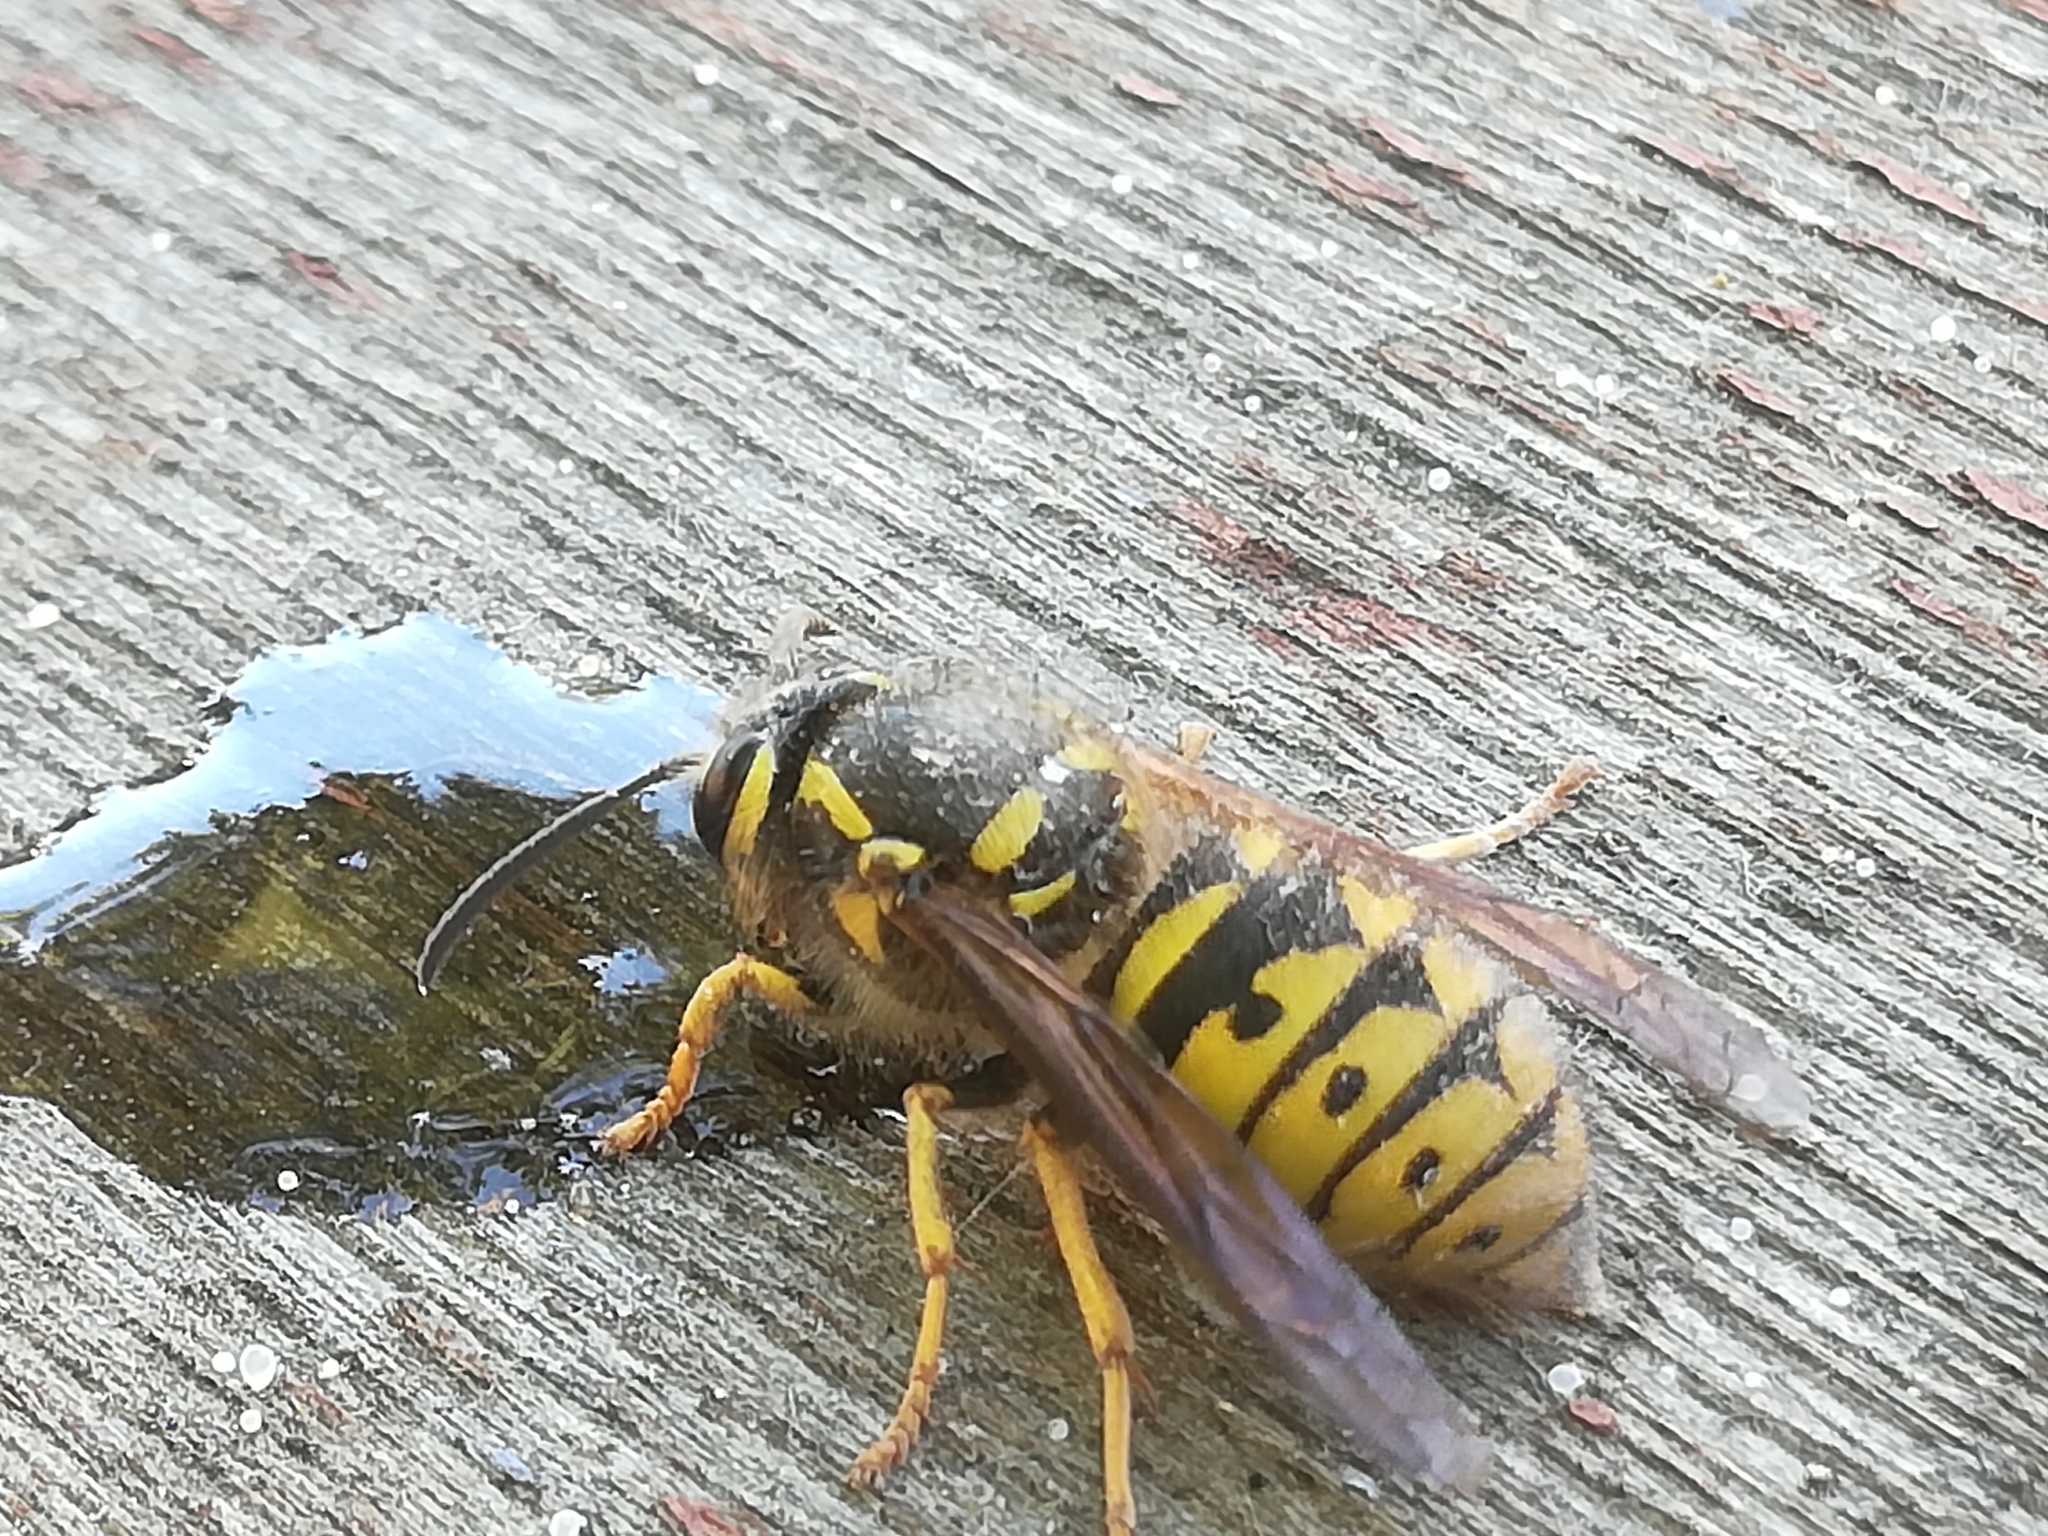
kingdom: Animalia
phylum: Arthropoda
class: Insecta
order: Hymenoptera
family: Vespidae
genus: Dolichovespula
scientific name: Dolichovespula arenaria
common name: Aerial yellowjacket
